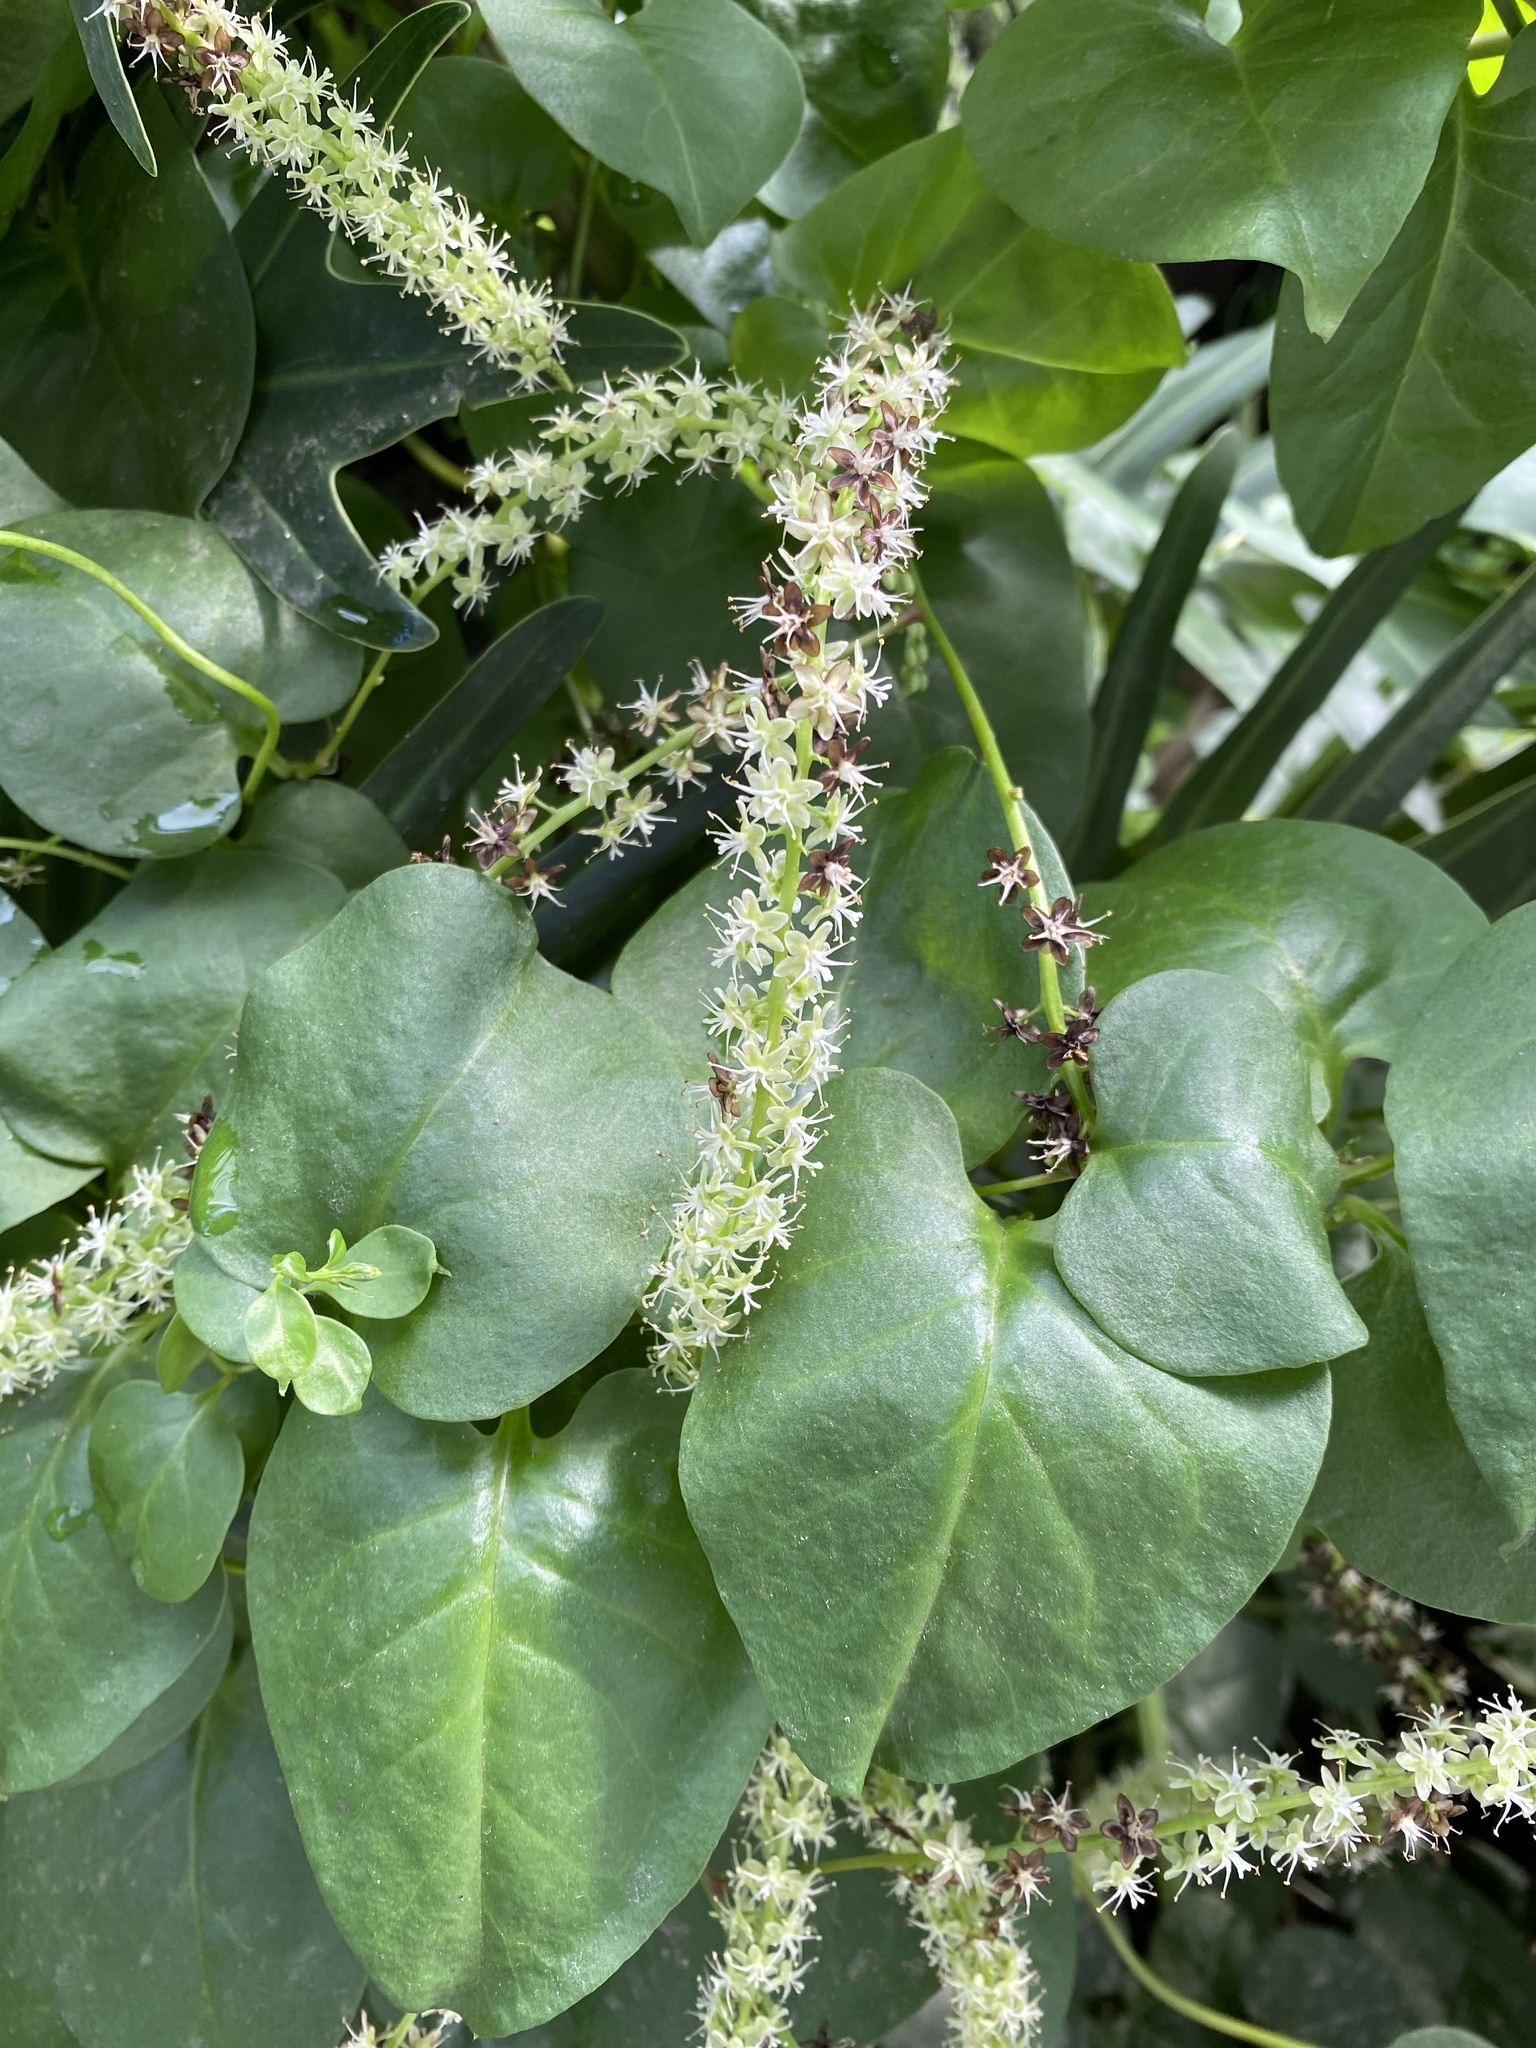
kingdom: Plantae
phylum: Tracheophyta
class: Magnoliopsida
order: Caryophyllales
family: Basellaceae
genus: Anredera
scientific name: Anredera cordifolia
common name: Heartleaf madeiravine
